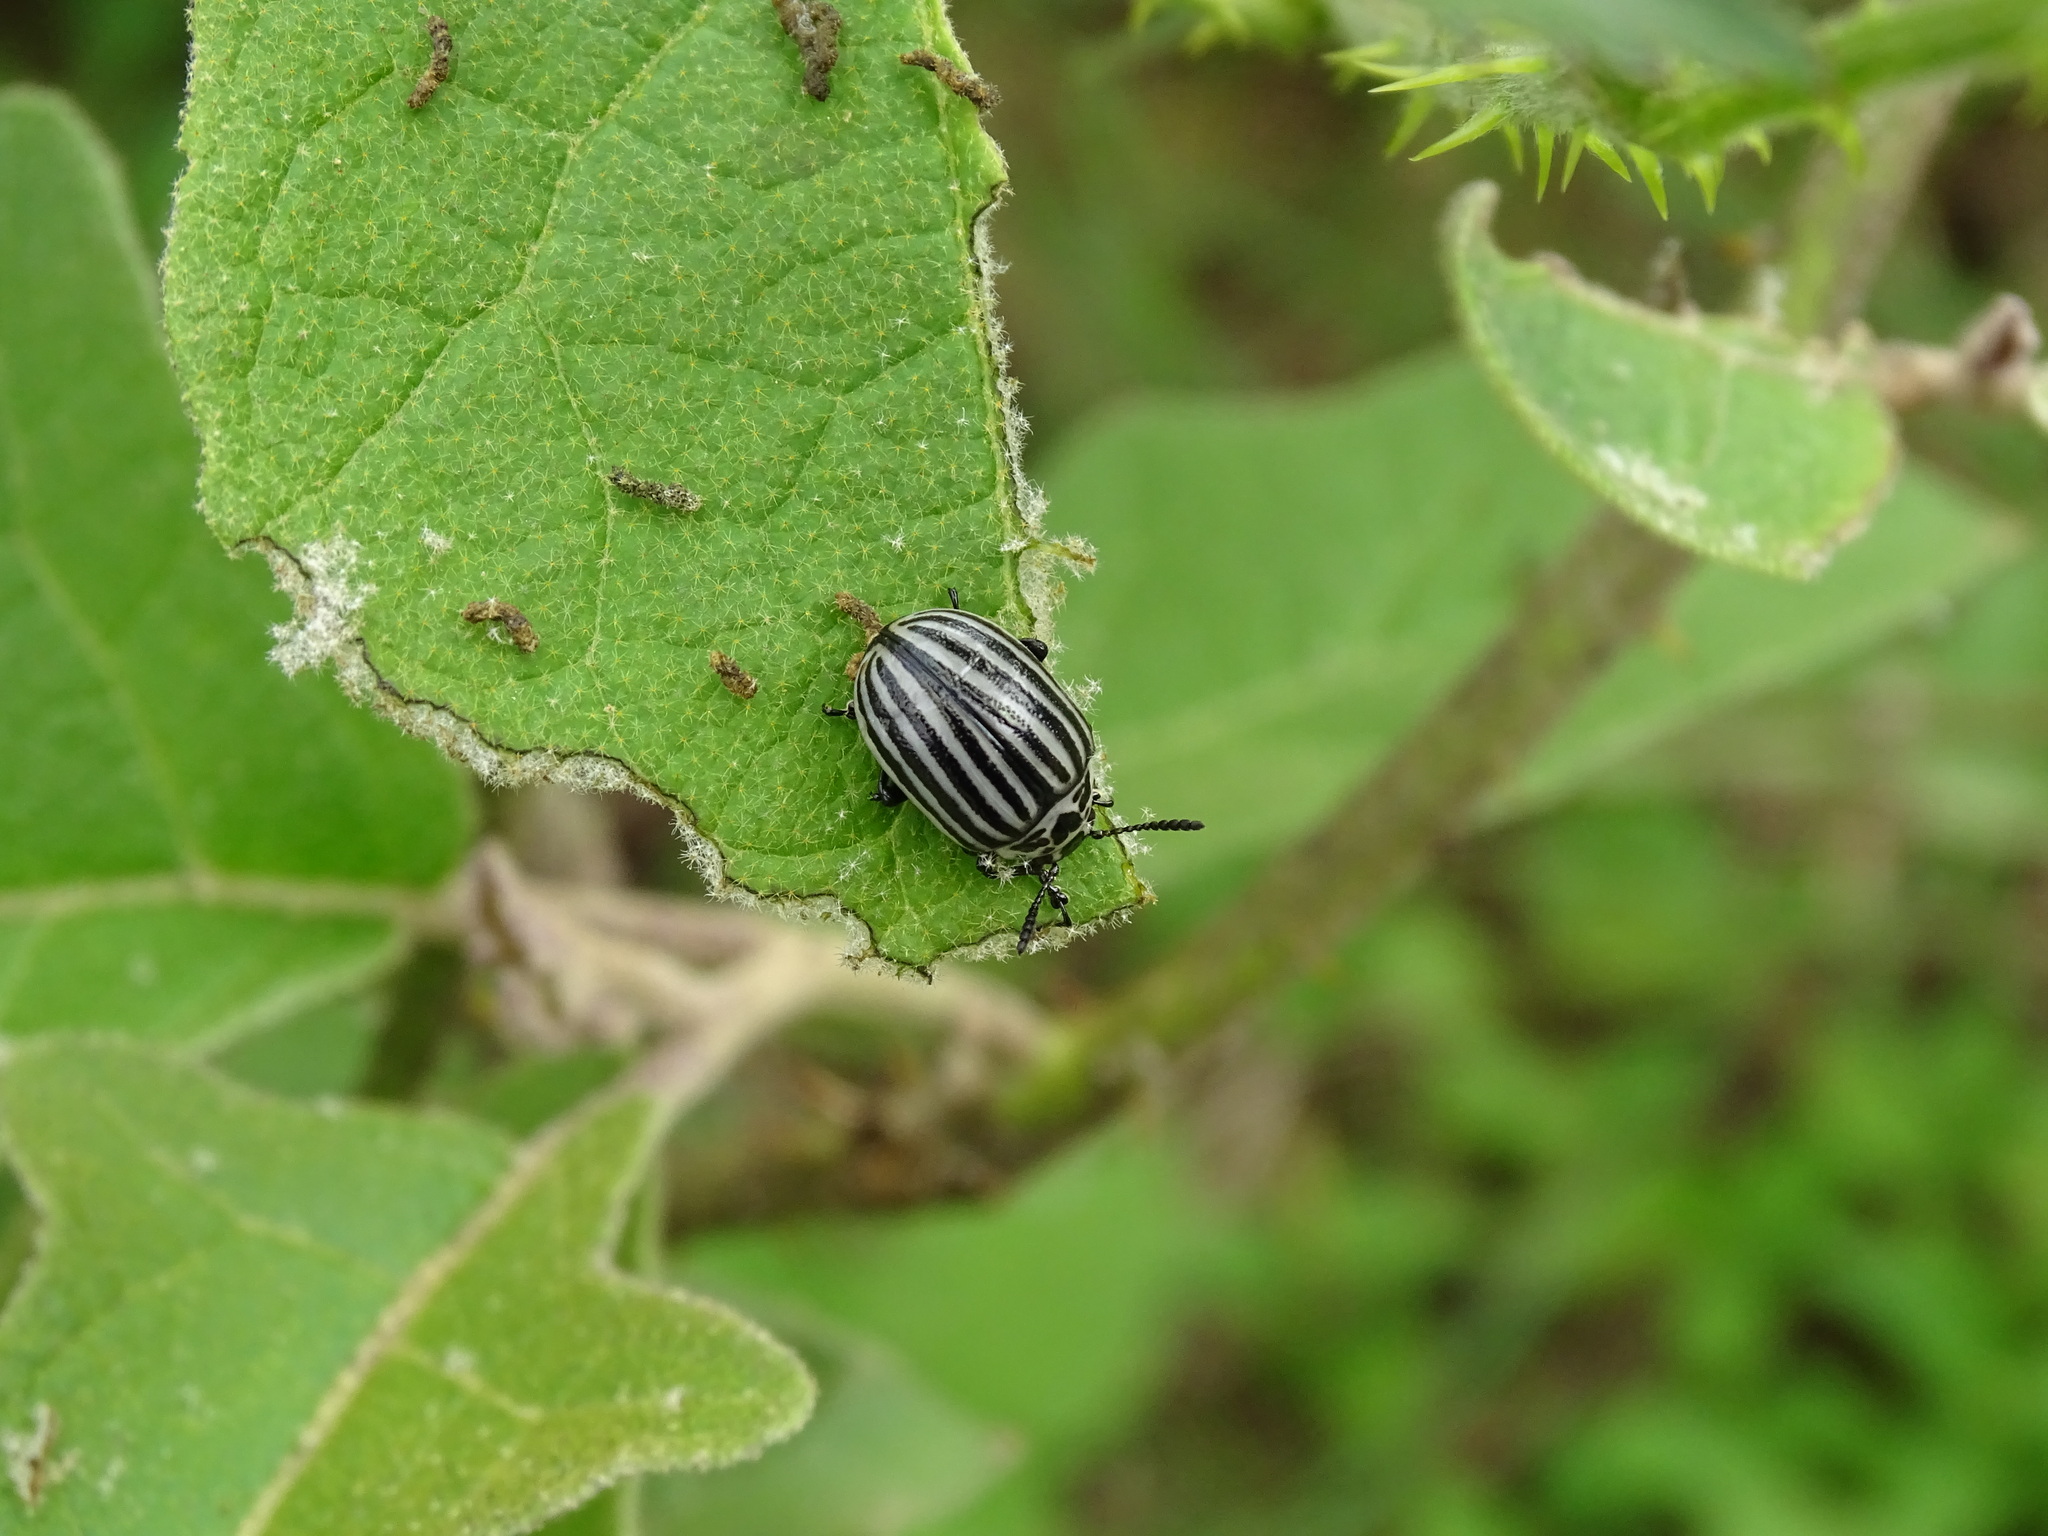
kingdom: Animalia
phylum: Arthropoda
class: Insecta
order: Coleoptera
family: Chrysomelidae
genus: Leptinotarsa
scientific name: Leptinotarsa
